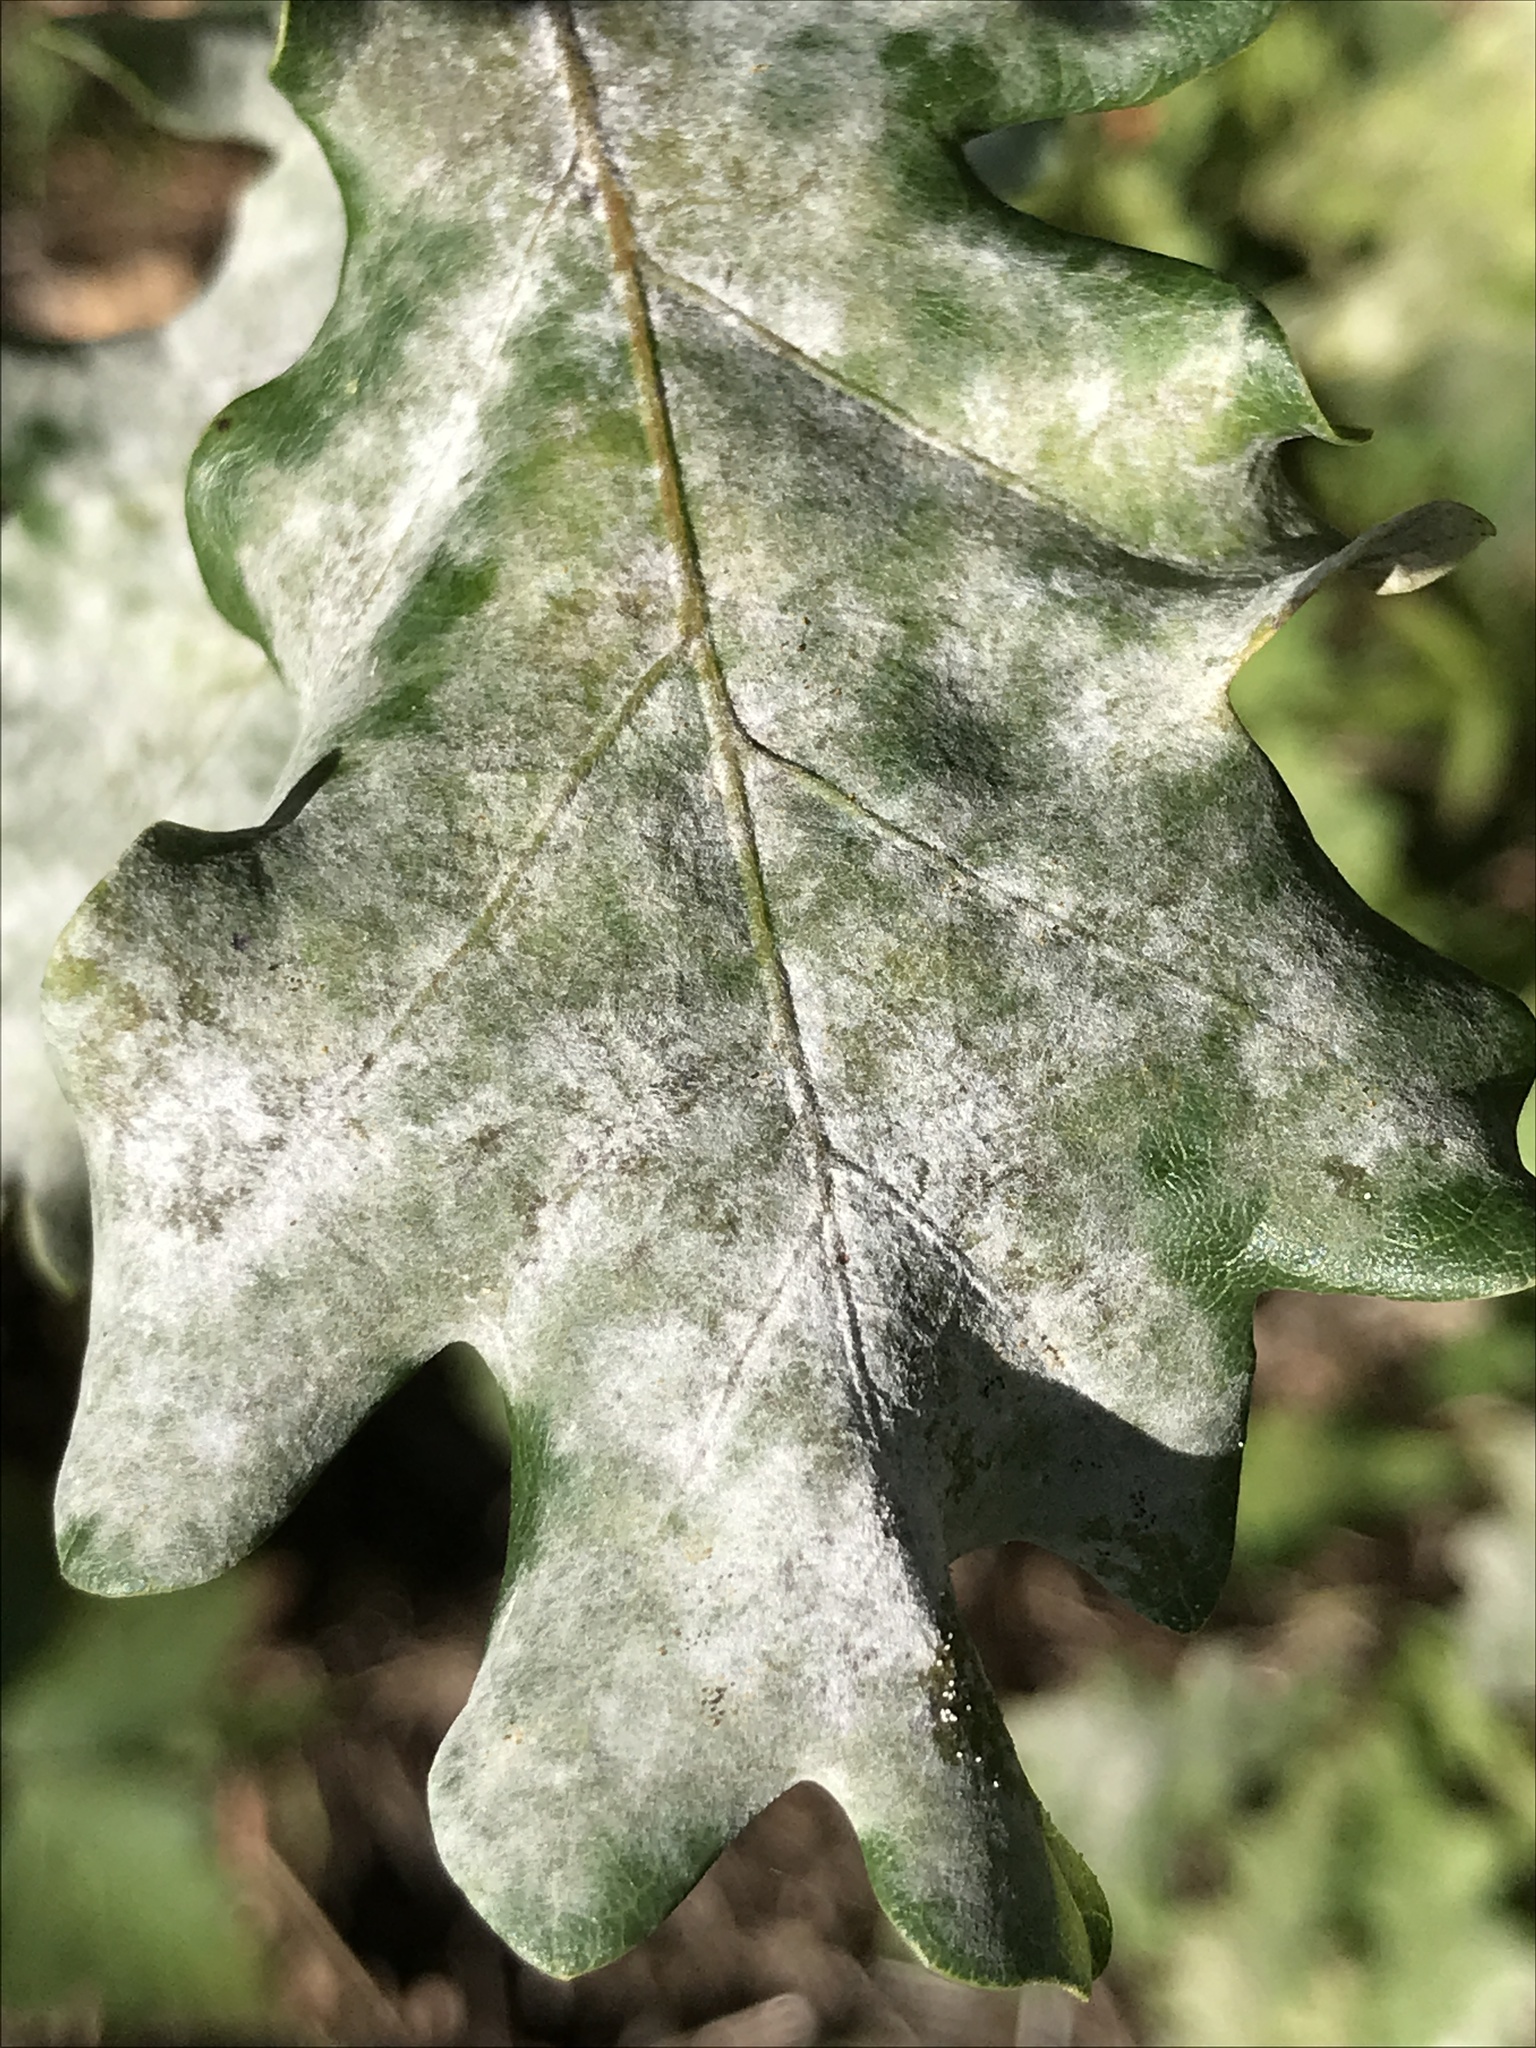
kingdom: Fungi
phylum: Ascomycota
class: Leotiomycetes
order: Helotiales
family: Erysiphaceae
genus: Erysiphe
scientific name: Erysiphe
